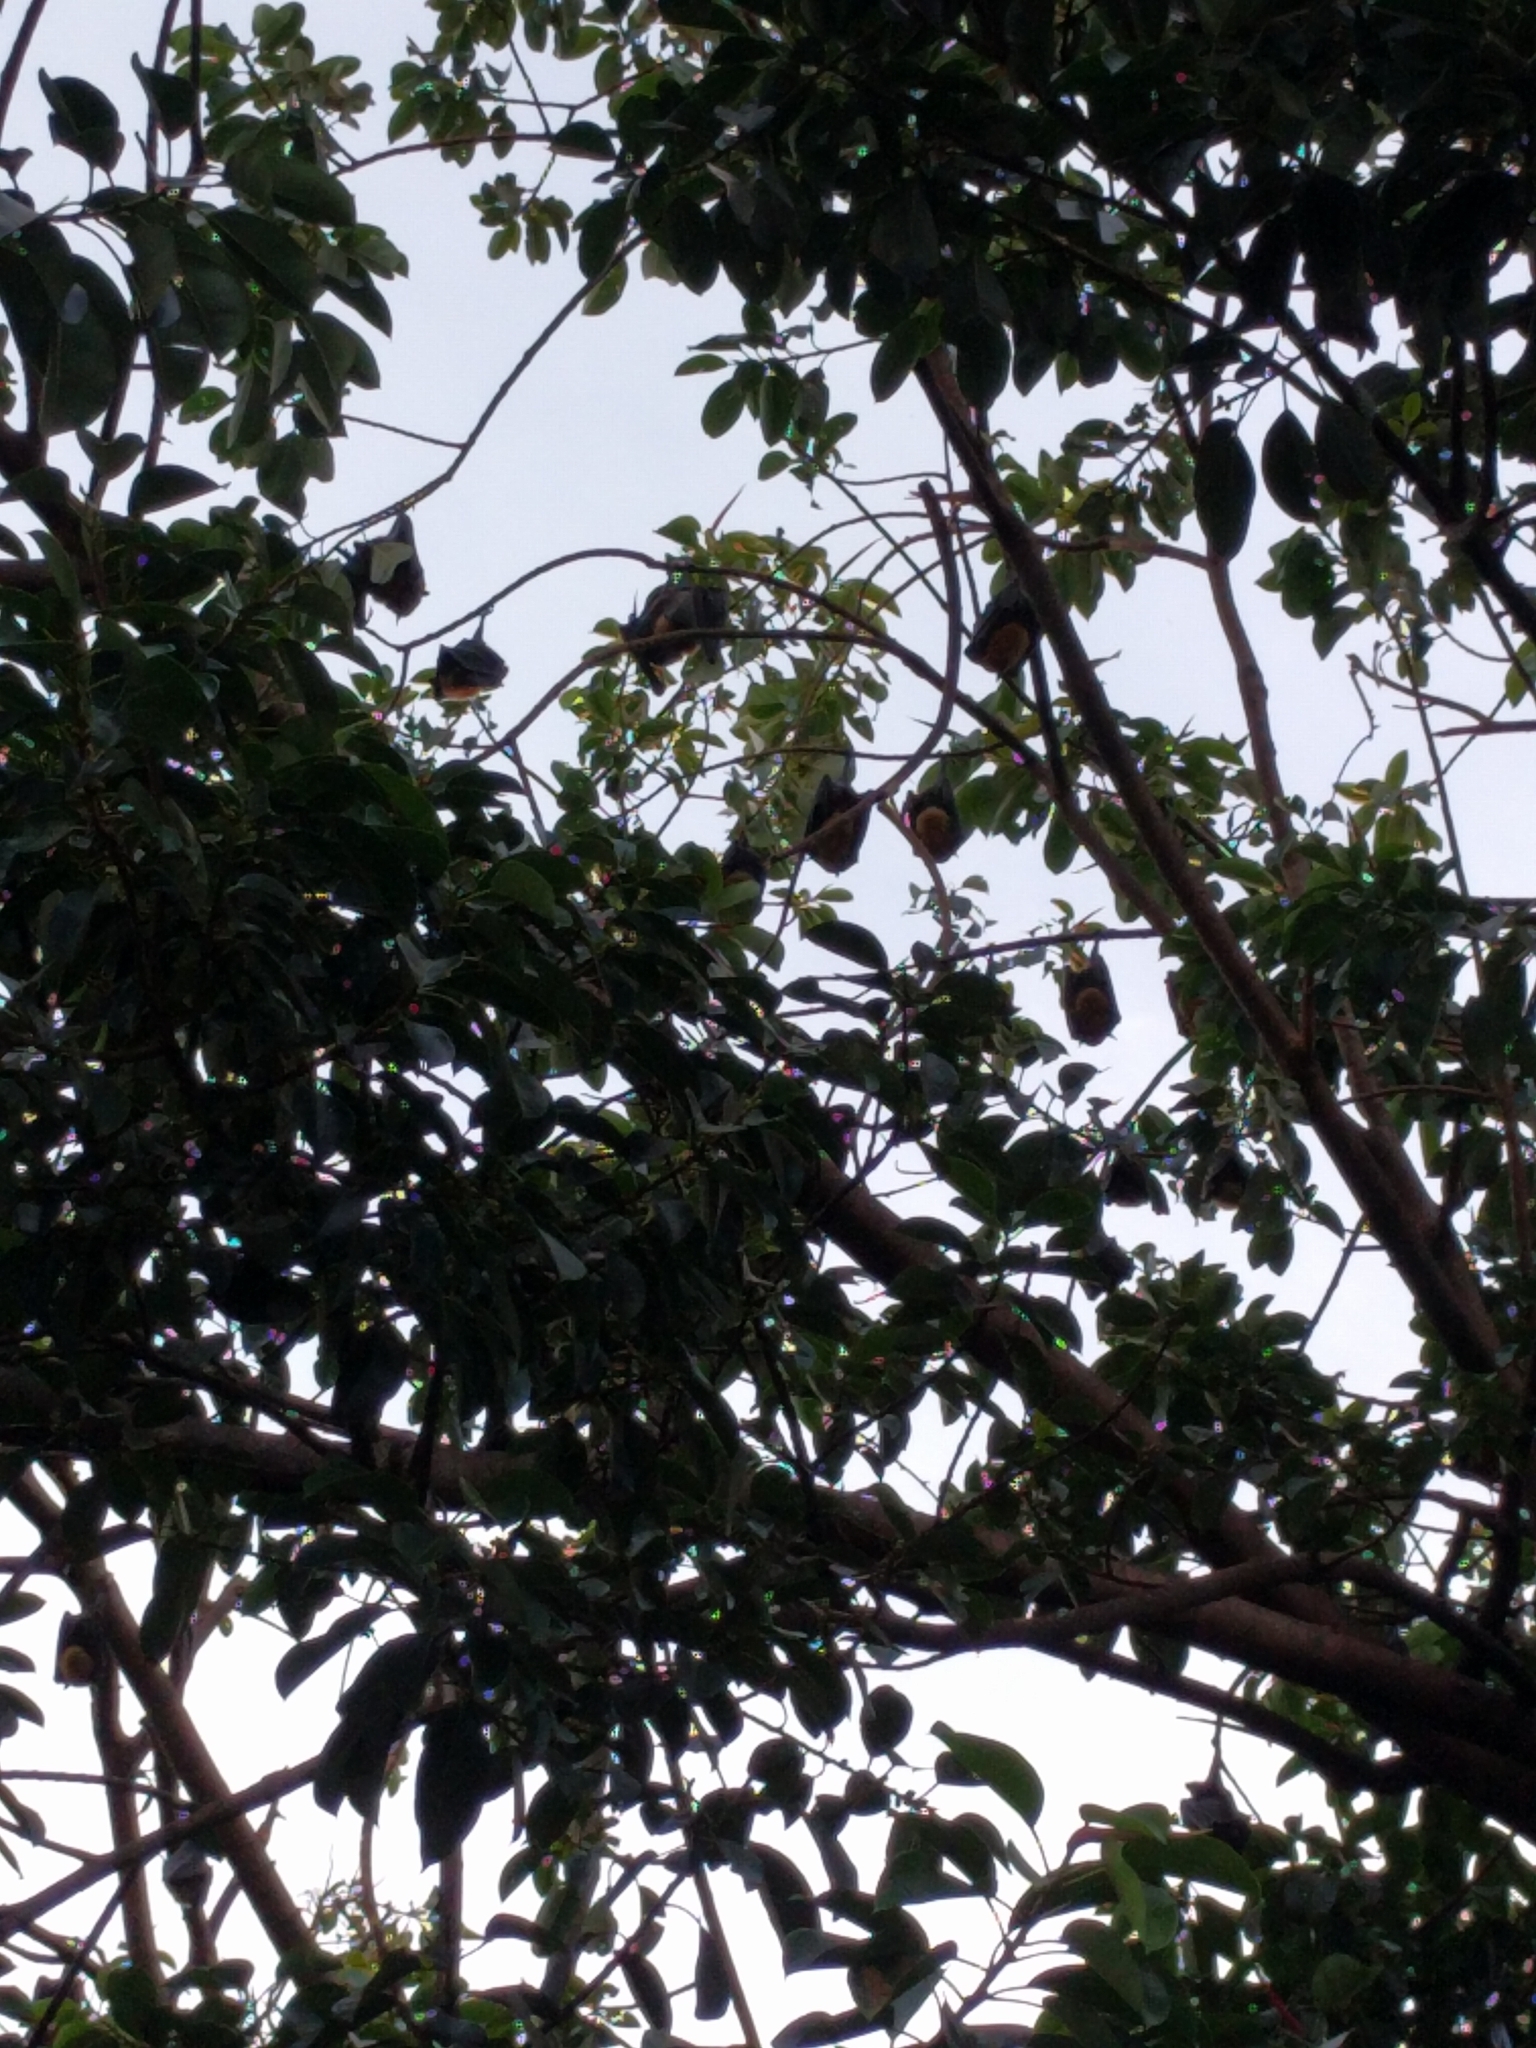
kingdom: Animalia
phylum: Chordata
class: Mammalia
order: Chiroptera
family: Pteropodidae
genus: Pteropus
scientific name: Pteropus conspicillatus
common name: Spectacled flying fox
